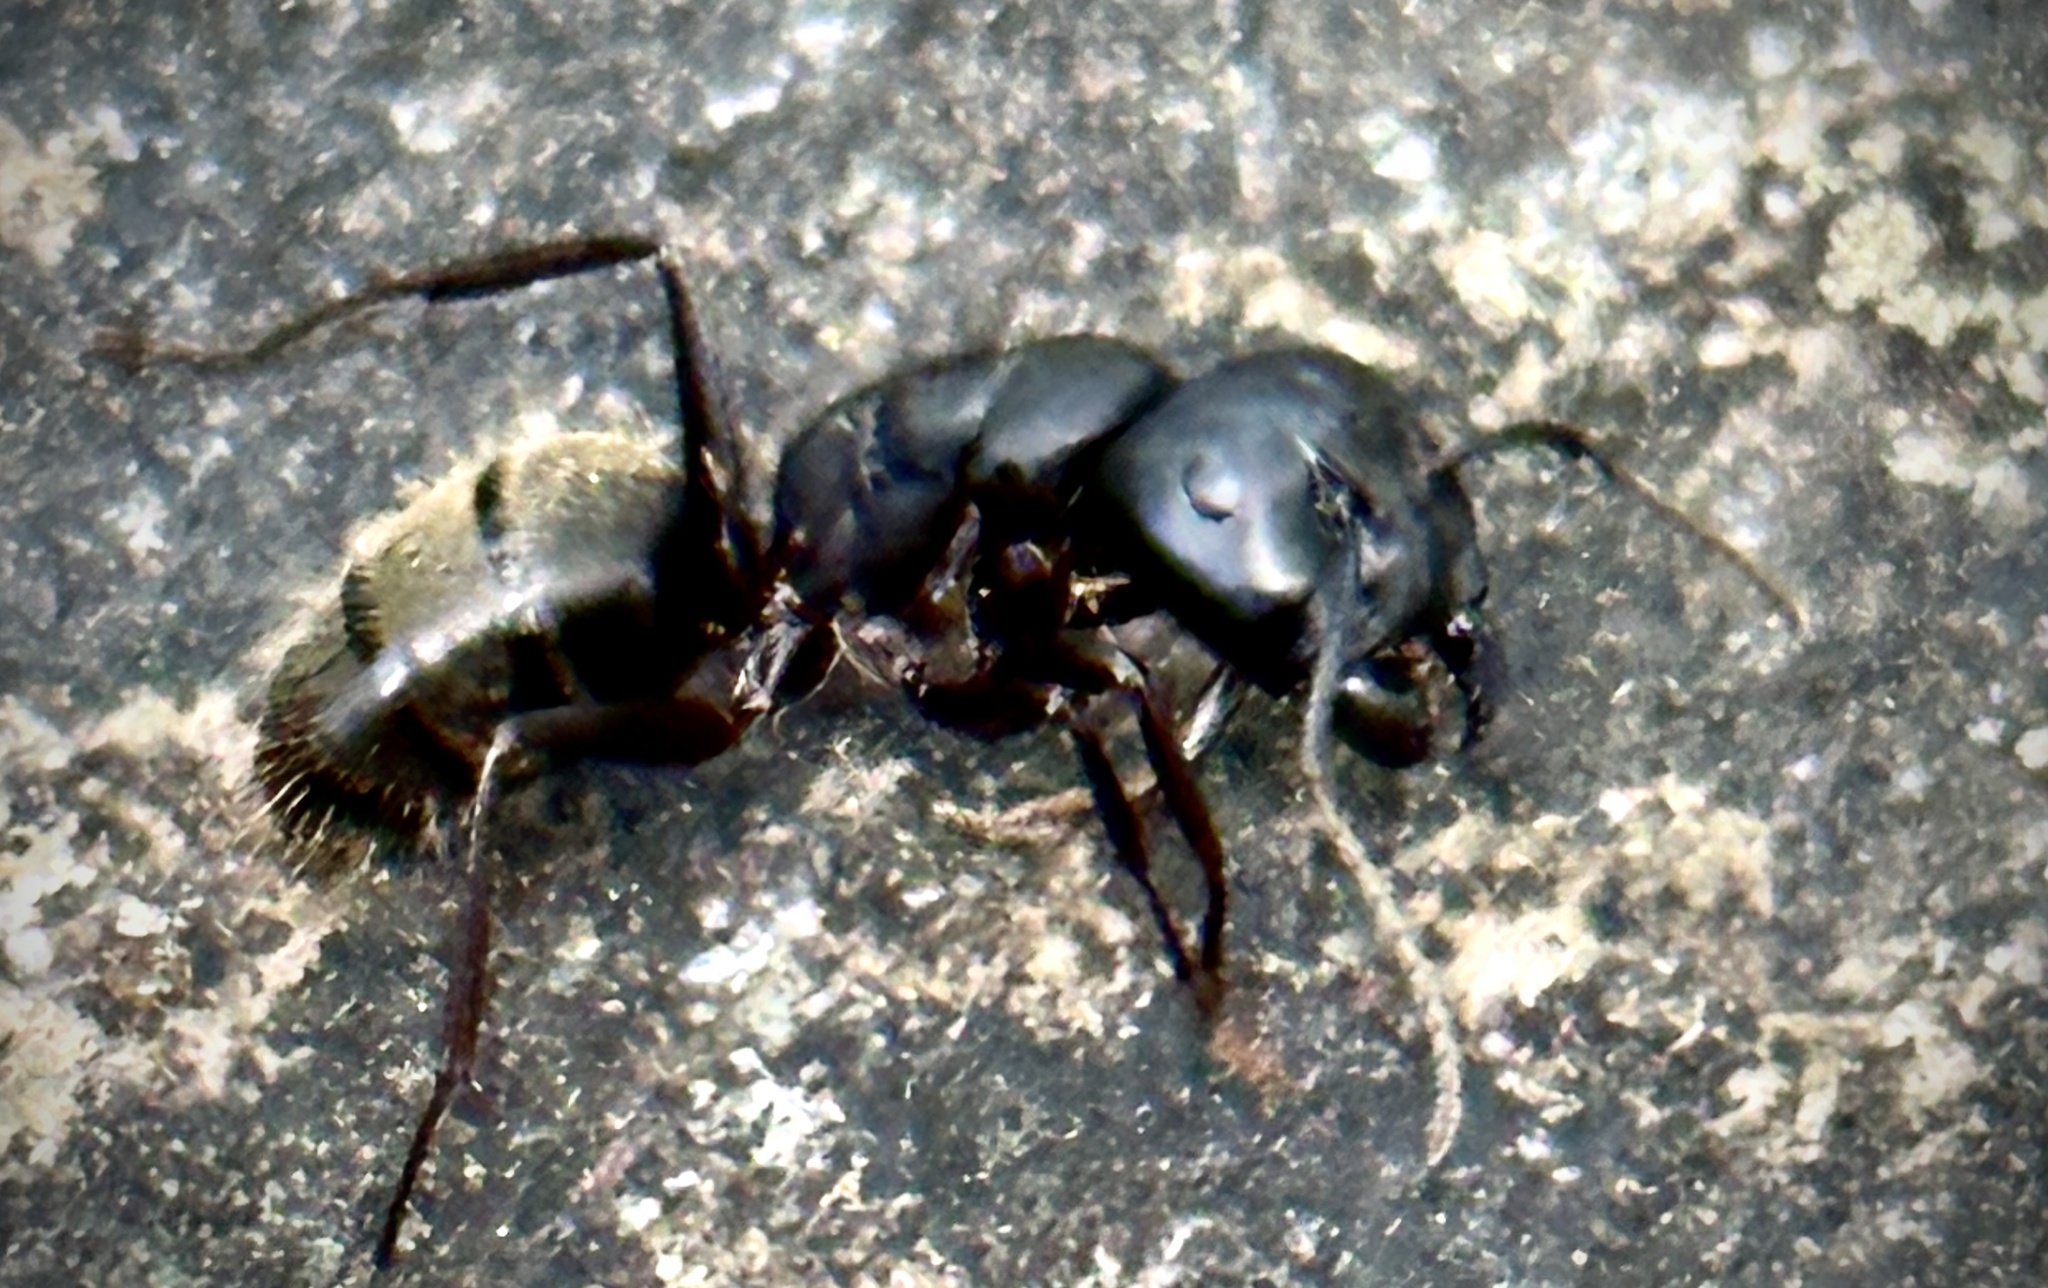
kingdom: Animalia
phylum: Arthropoda
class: Insecta
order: Hymenoptera
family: Formicidae
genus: Camponotus
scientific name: Camponotus pennsylvanicus
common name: Black carpenter ant
